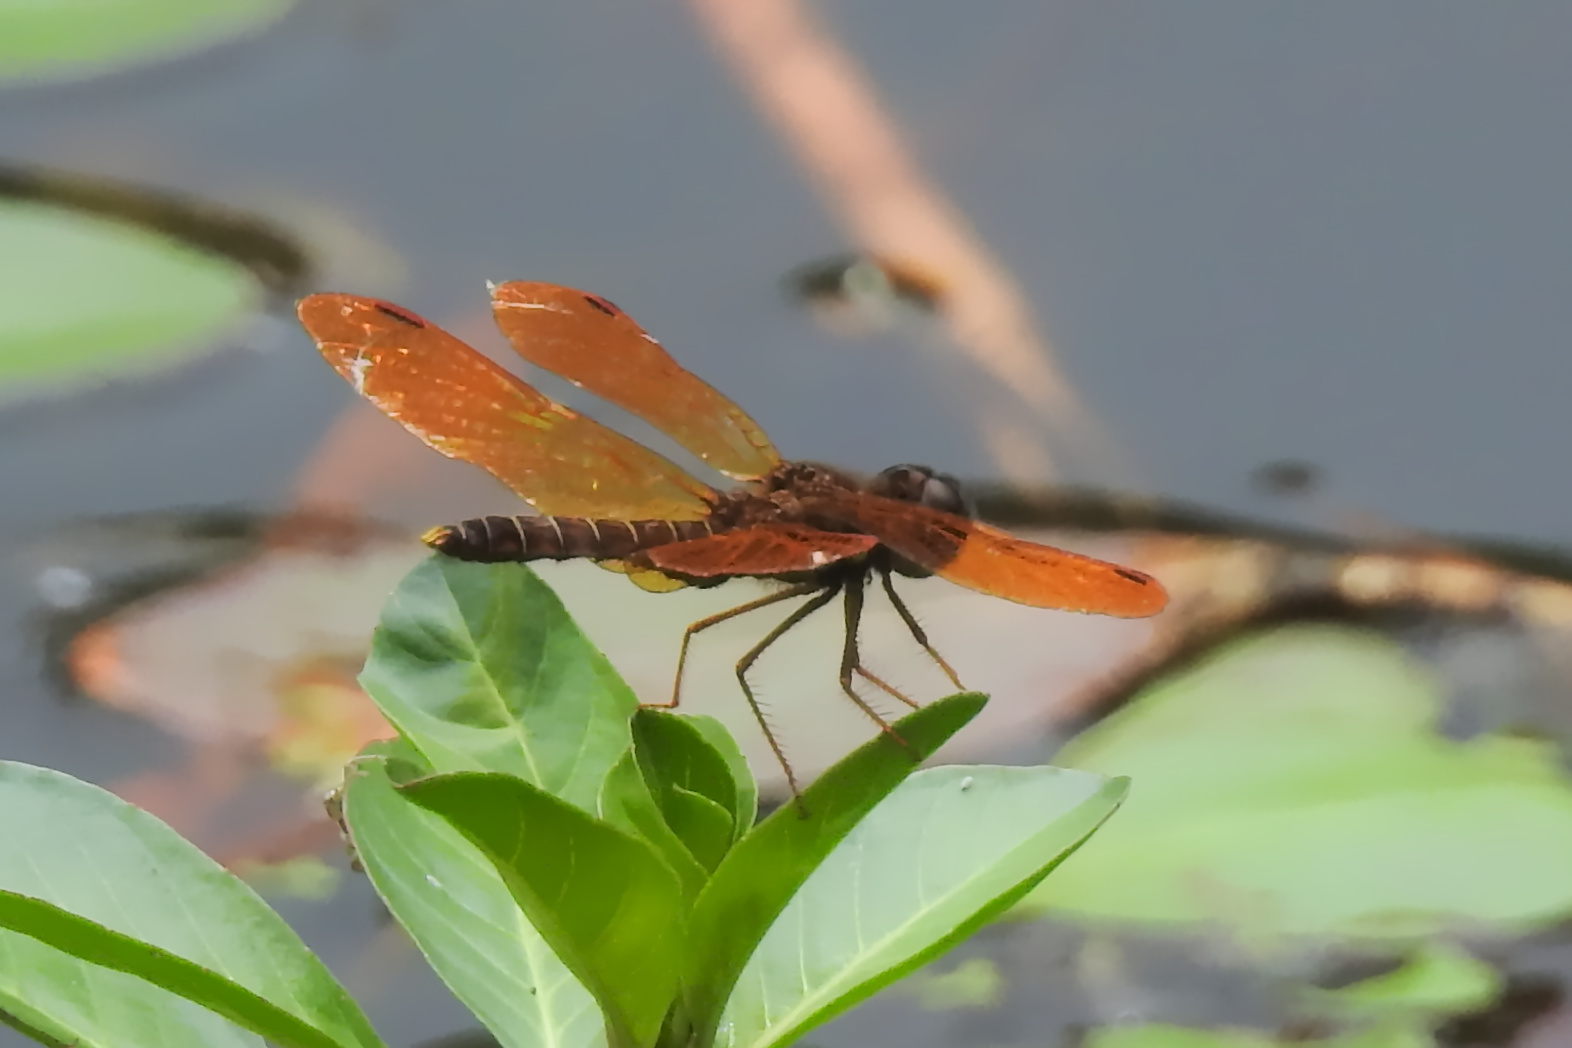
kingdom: Animalia
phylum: Arthropoda
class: Insecta
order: Odonata
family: Libellulidae
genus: Perithemis
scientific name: Perithemis tenera
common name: Eastern amberwing
